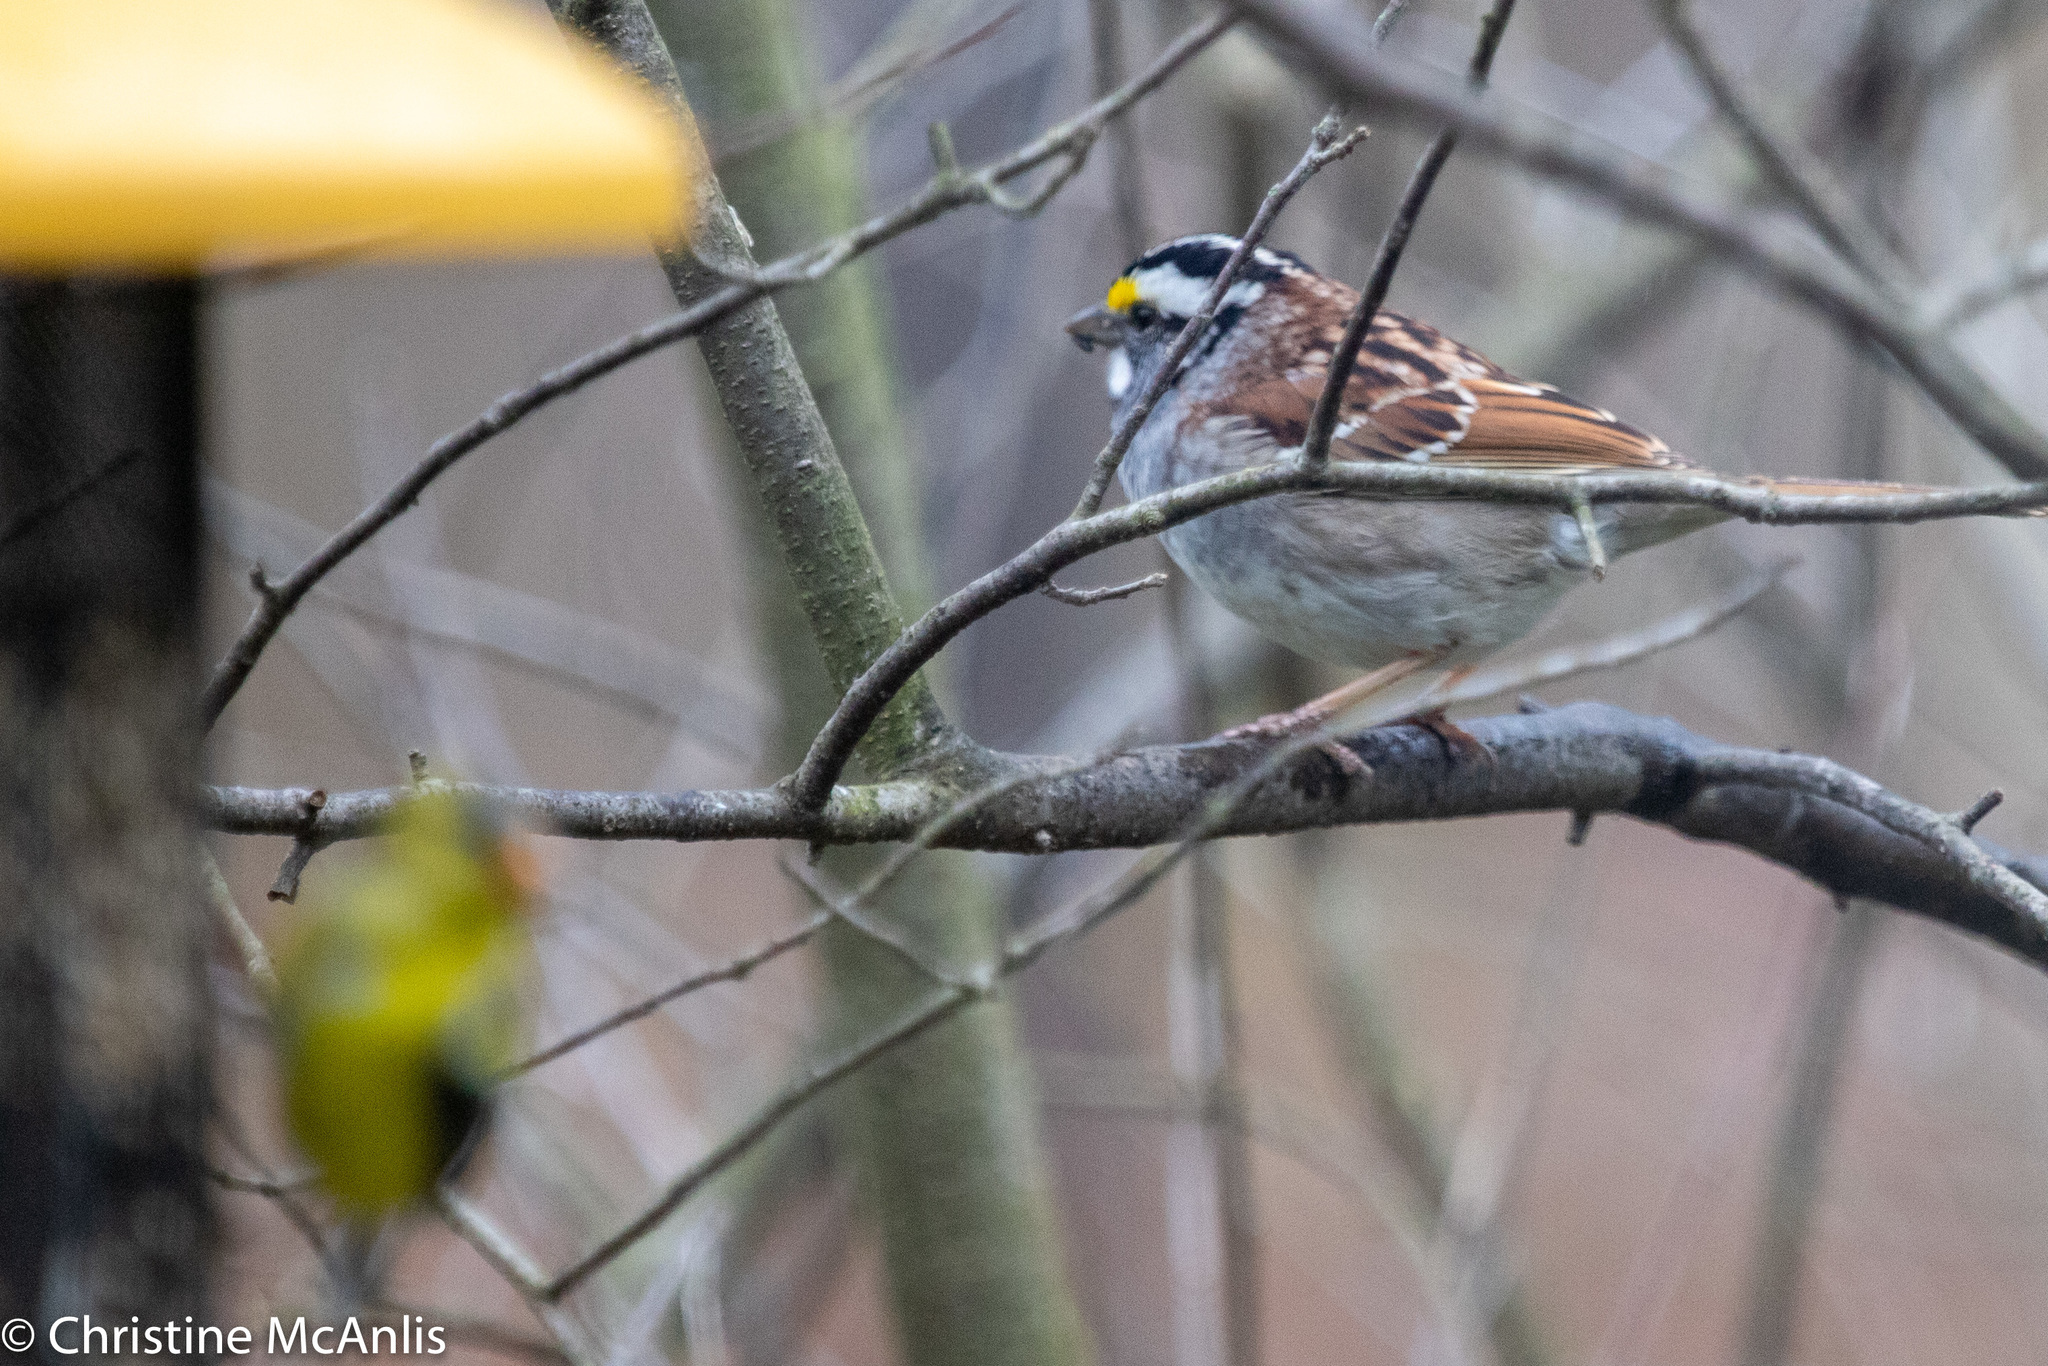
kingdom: Animalia
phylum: Chordata
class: Aves
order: Passeriformes
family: Passerellidae
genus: Zonotrichia
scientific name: Zonotrichia albicollis
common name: White-throated sparrow
